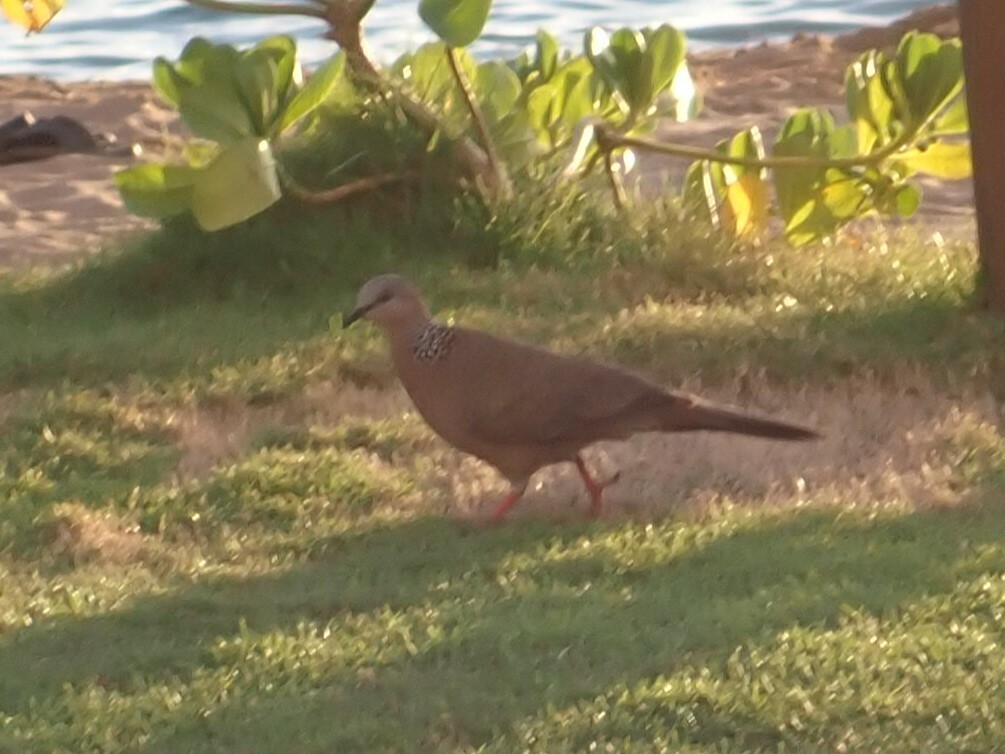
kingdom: Animalia
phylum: Chordata
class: Aves
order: Columbiformes
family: Columbidae
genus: Spilopelia
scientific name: Spilopelia chinensis
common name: Spotted dove
